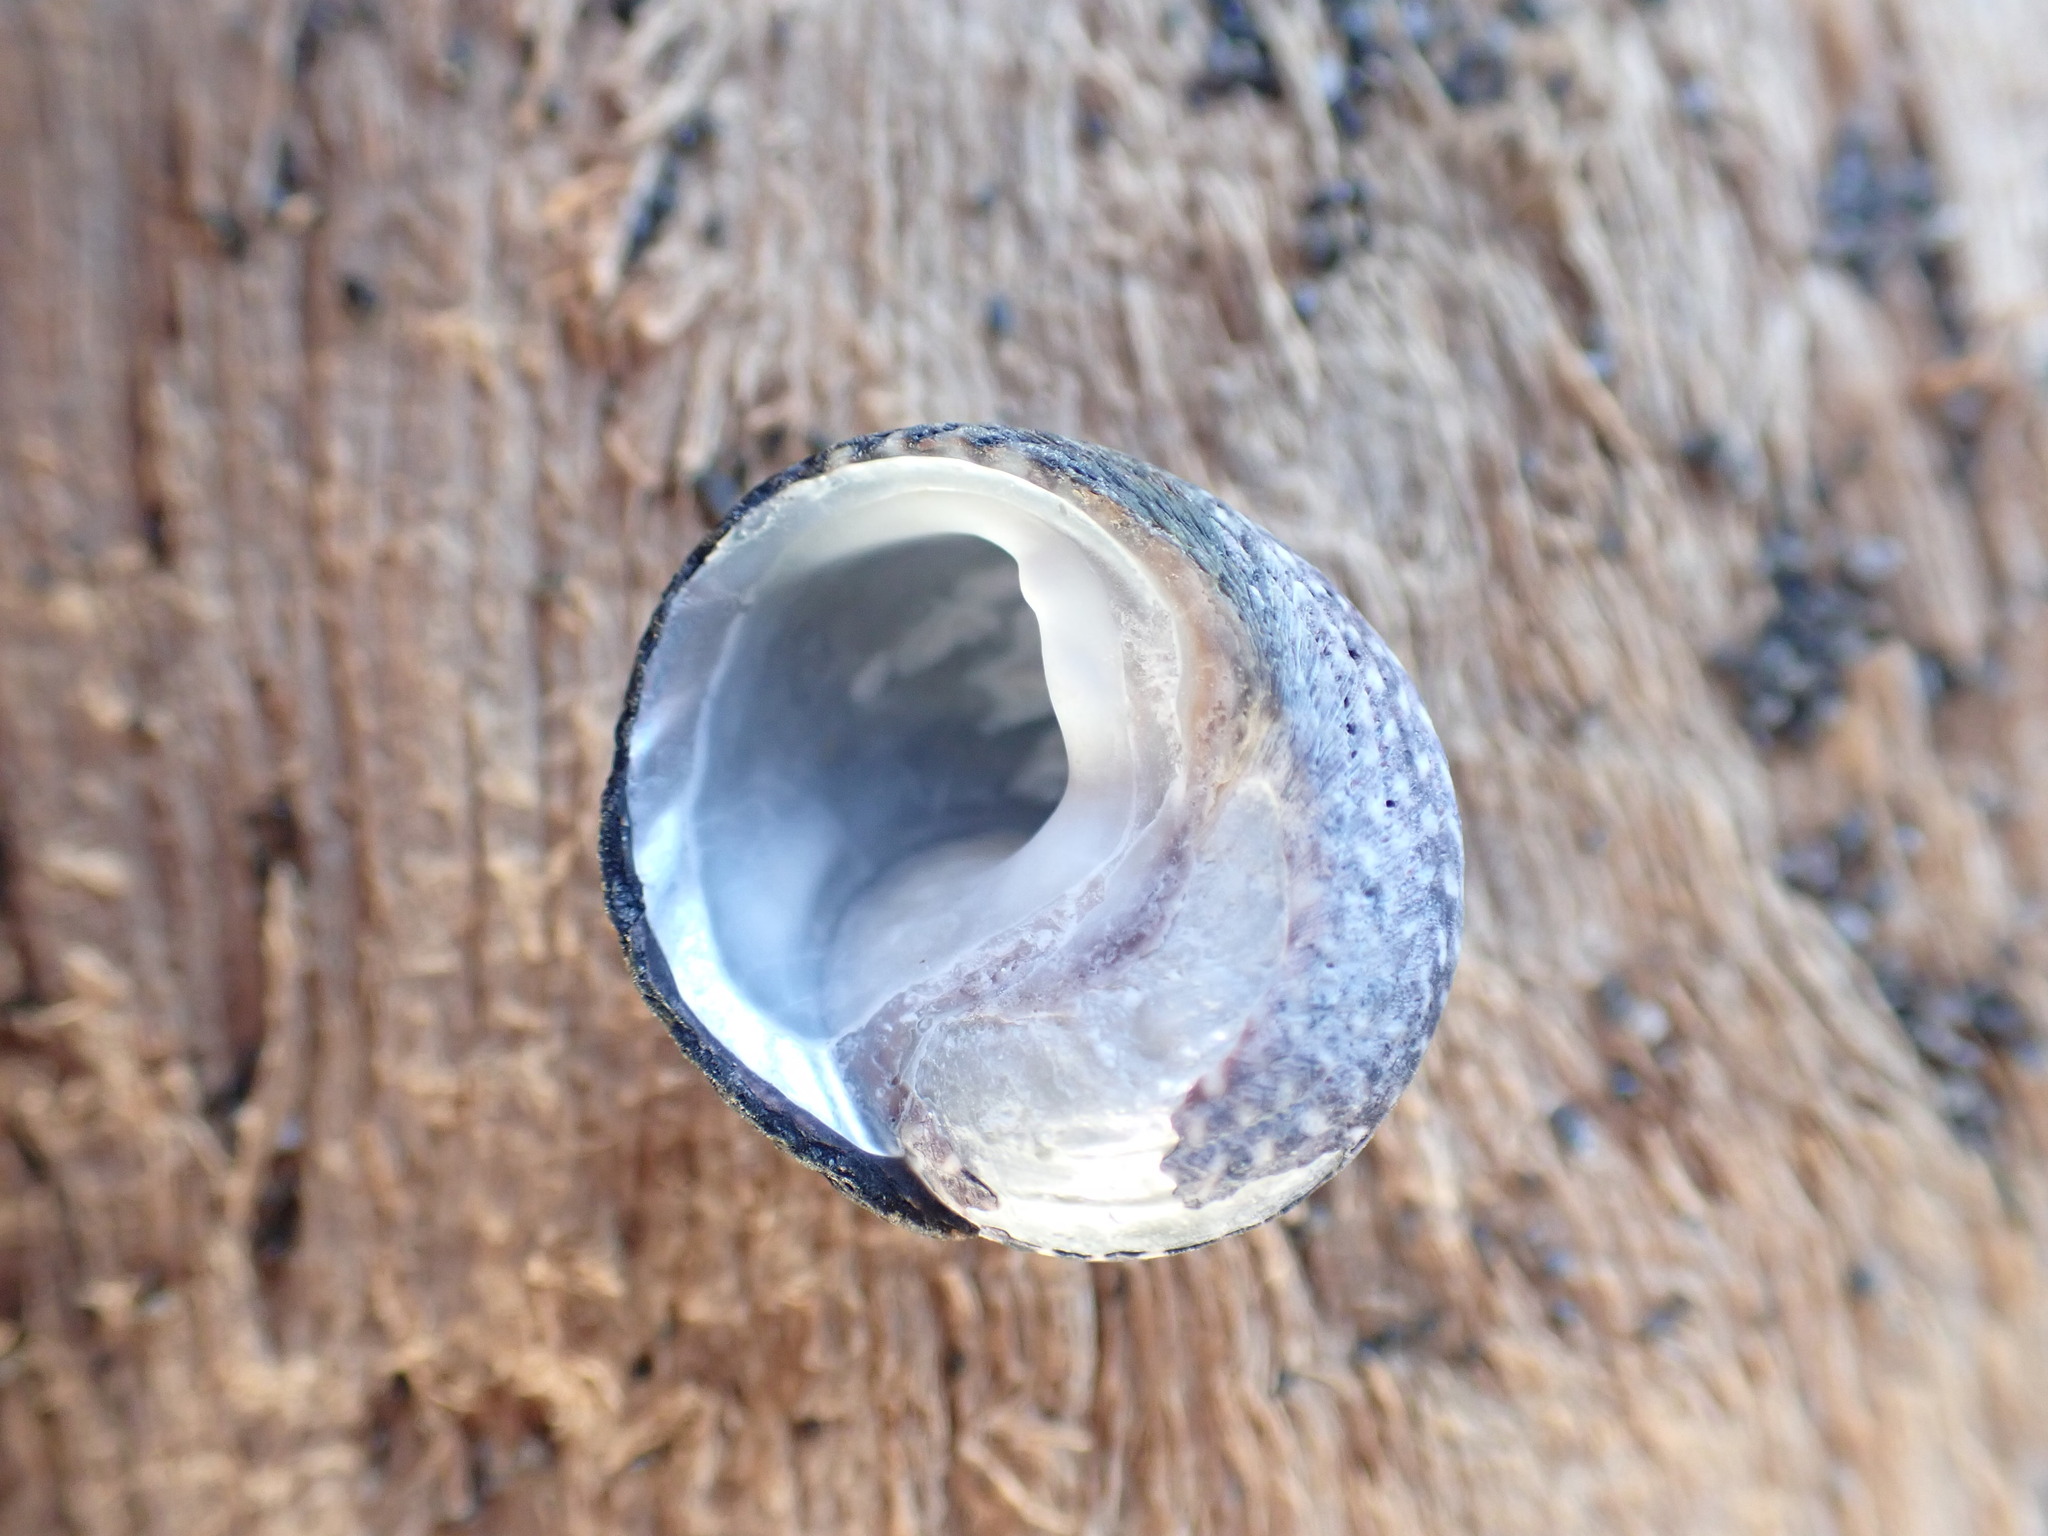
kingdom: Animalia
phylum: Mollusca
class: Gastropoda
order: Trochida
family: Trochidae
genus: Diloma
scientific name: Diloma aethiops
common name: Scorched monodont
